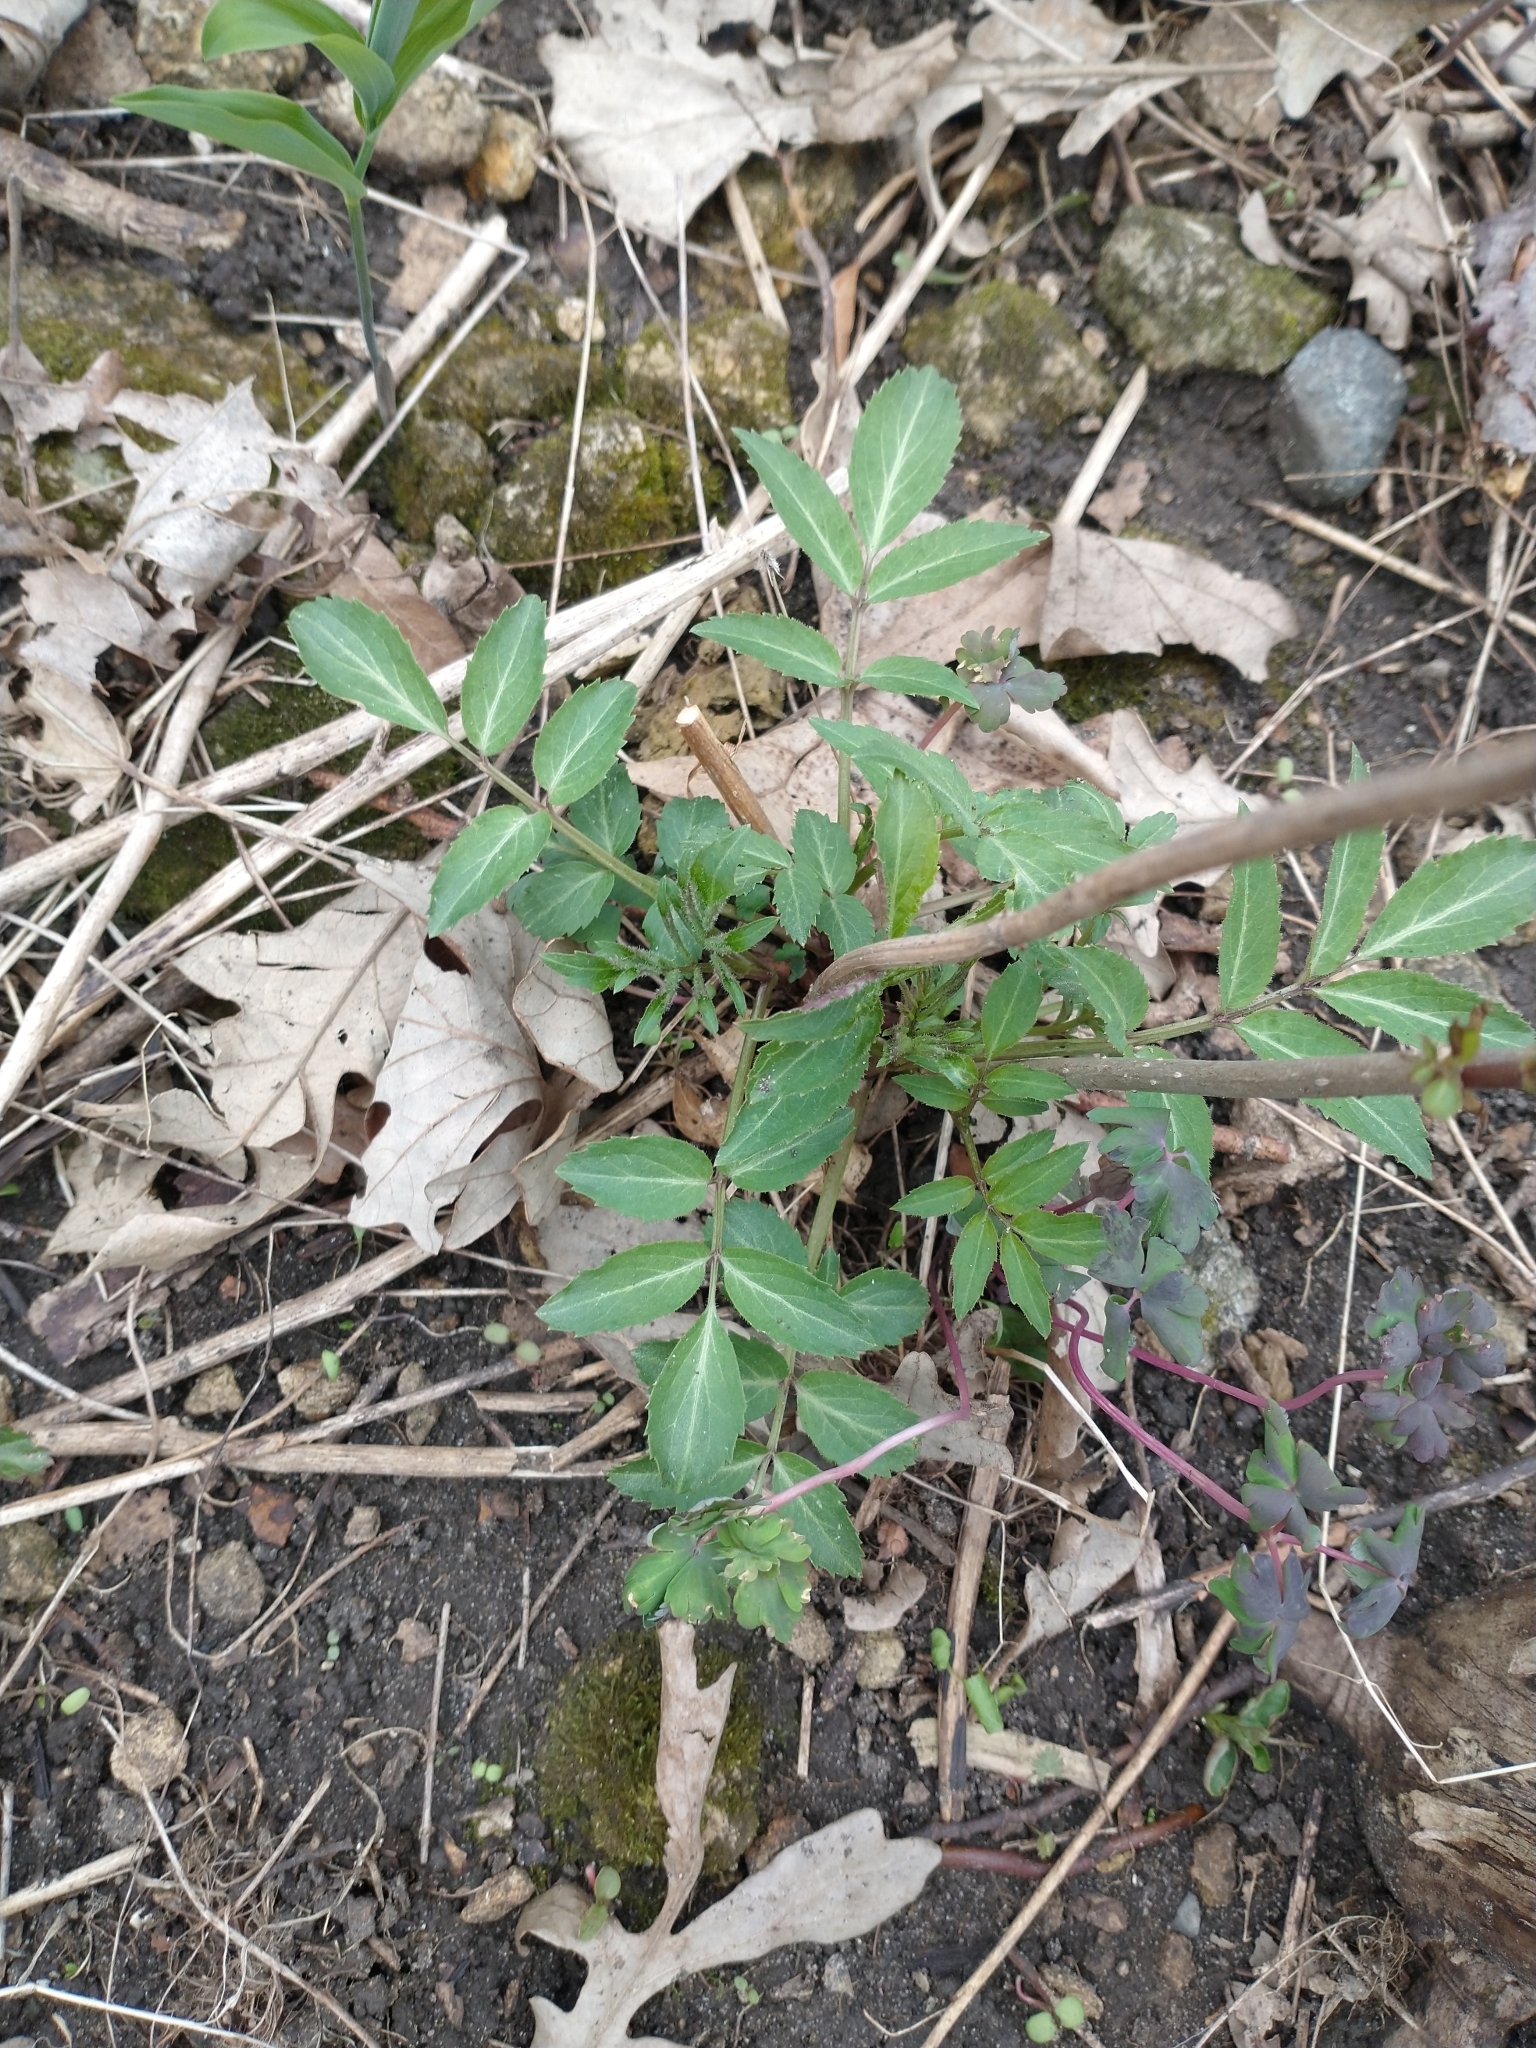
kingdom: Plantae
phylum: Tracheophyta
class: Magnoliopsida
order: Dipsacales
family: Viburnaceae
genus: Sambucus
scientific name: Sambucus canadensis
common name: American elder
